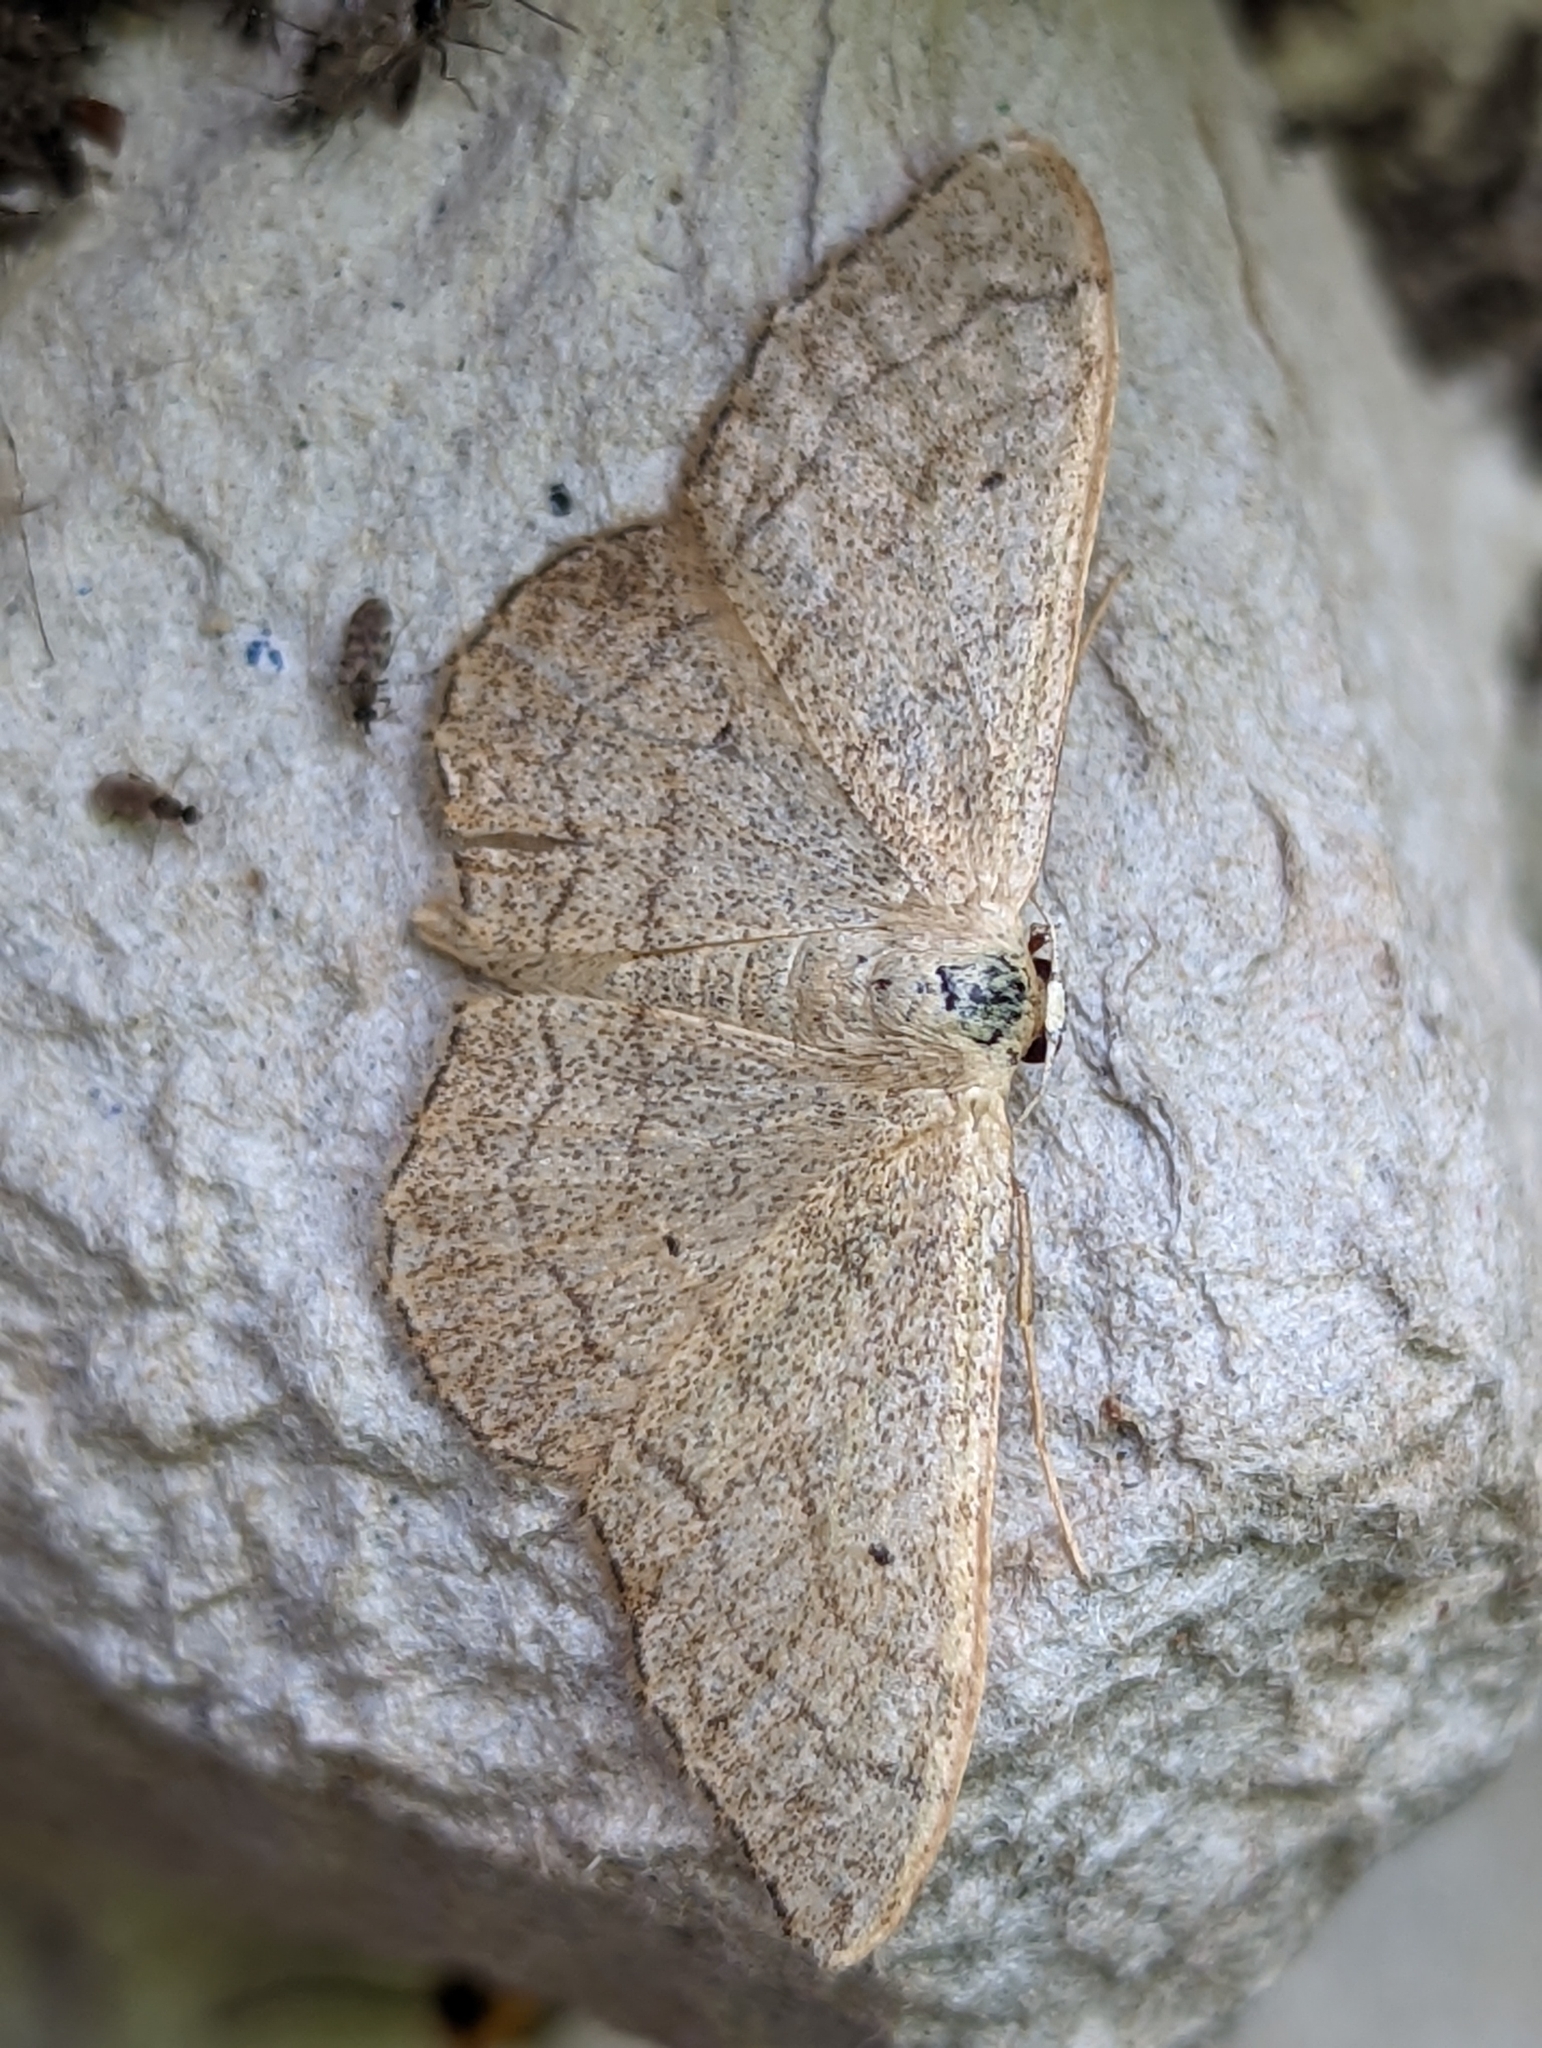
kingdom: Animalia
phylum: Arthropoda
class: Insecta
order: Lepidoptera
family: Geometridae
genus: Idaea
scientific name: Idaea aversata
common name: Riband wave
